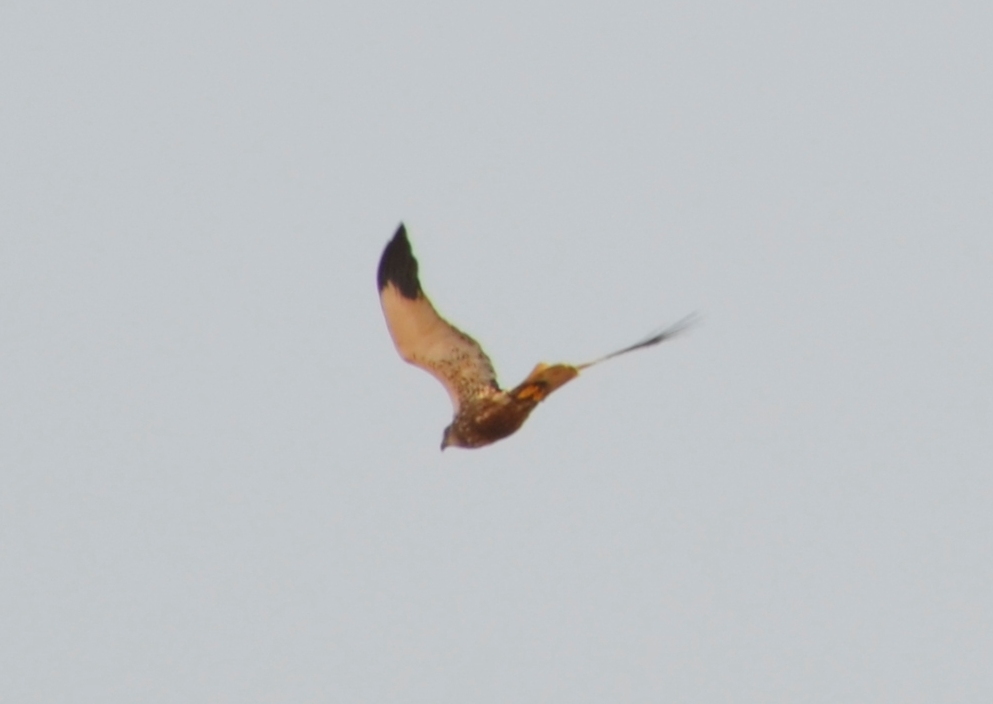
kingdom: Animalia
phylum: Chordata
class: Aves
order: Accipitriformes
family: Accipitridae
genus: Circus
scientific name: Circus aeruginosus
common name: Western marsh harrier
